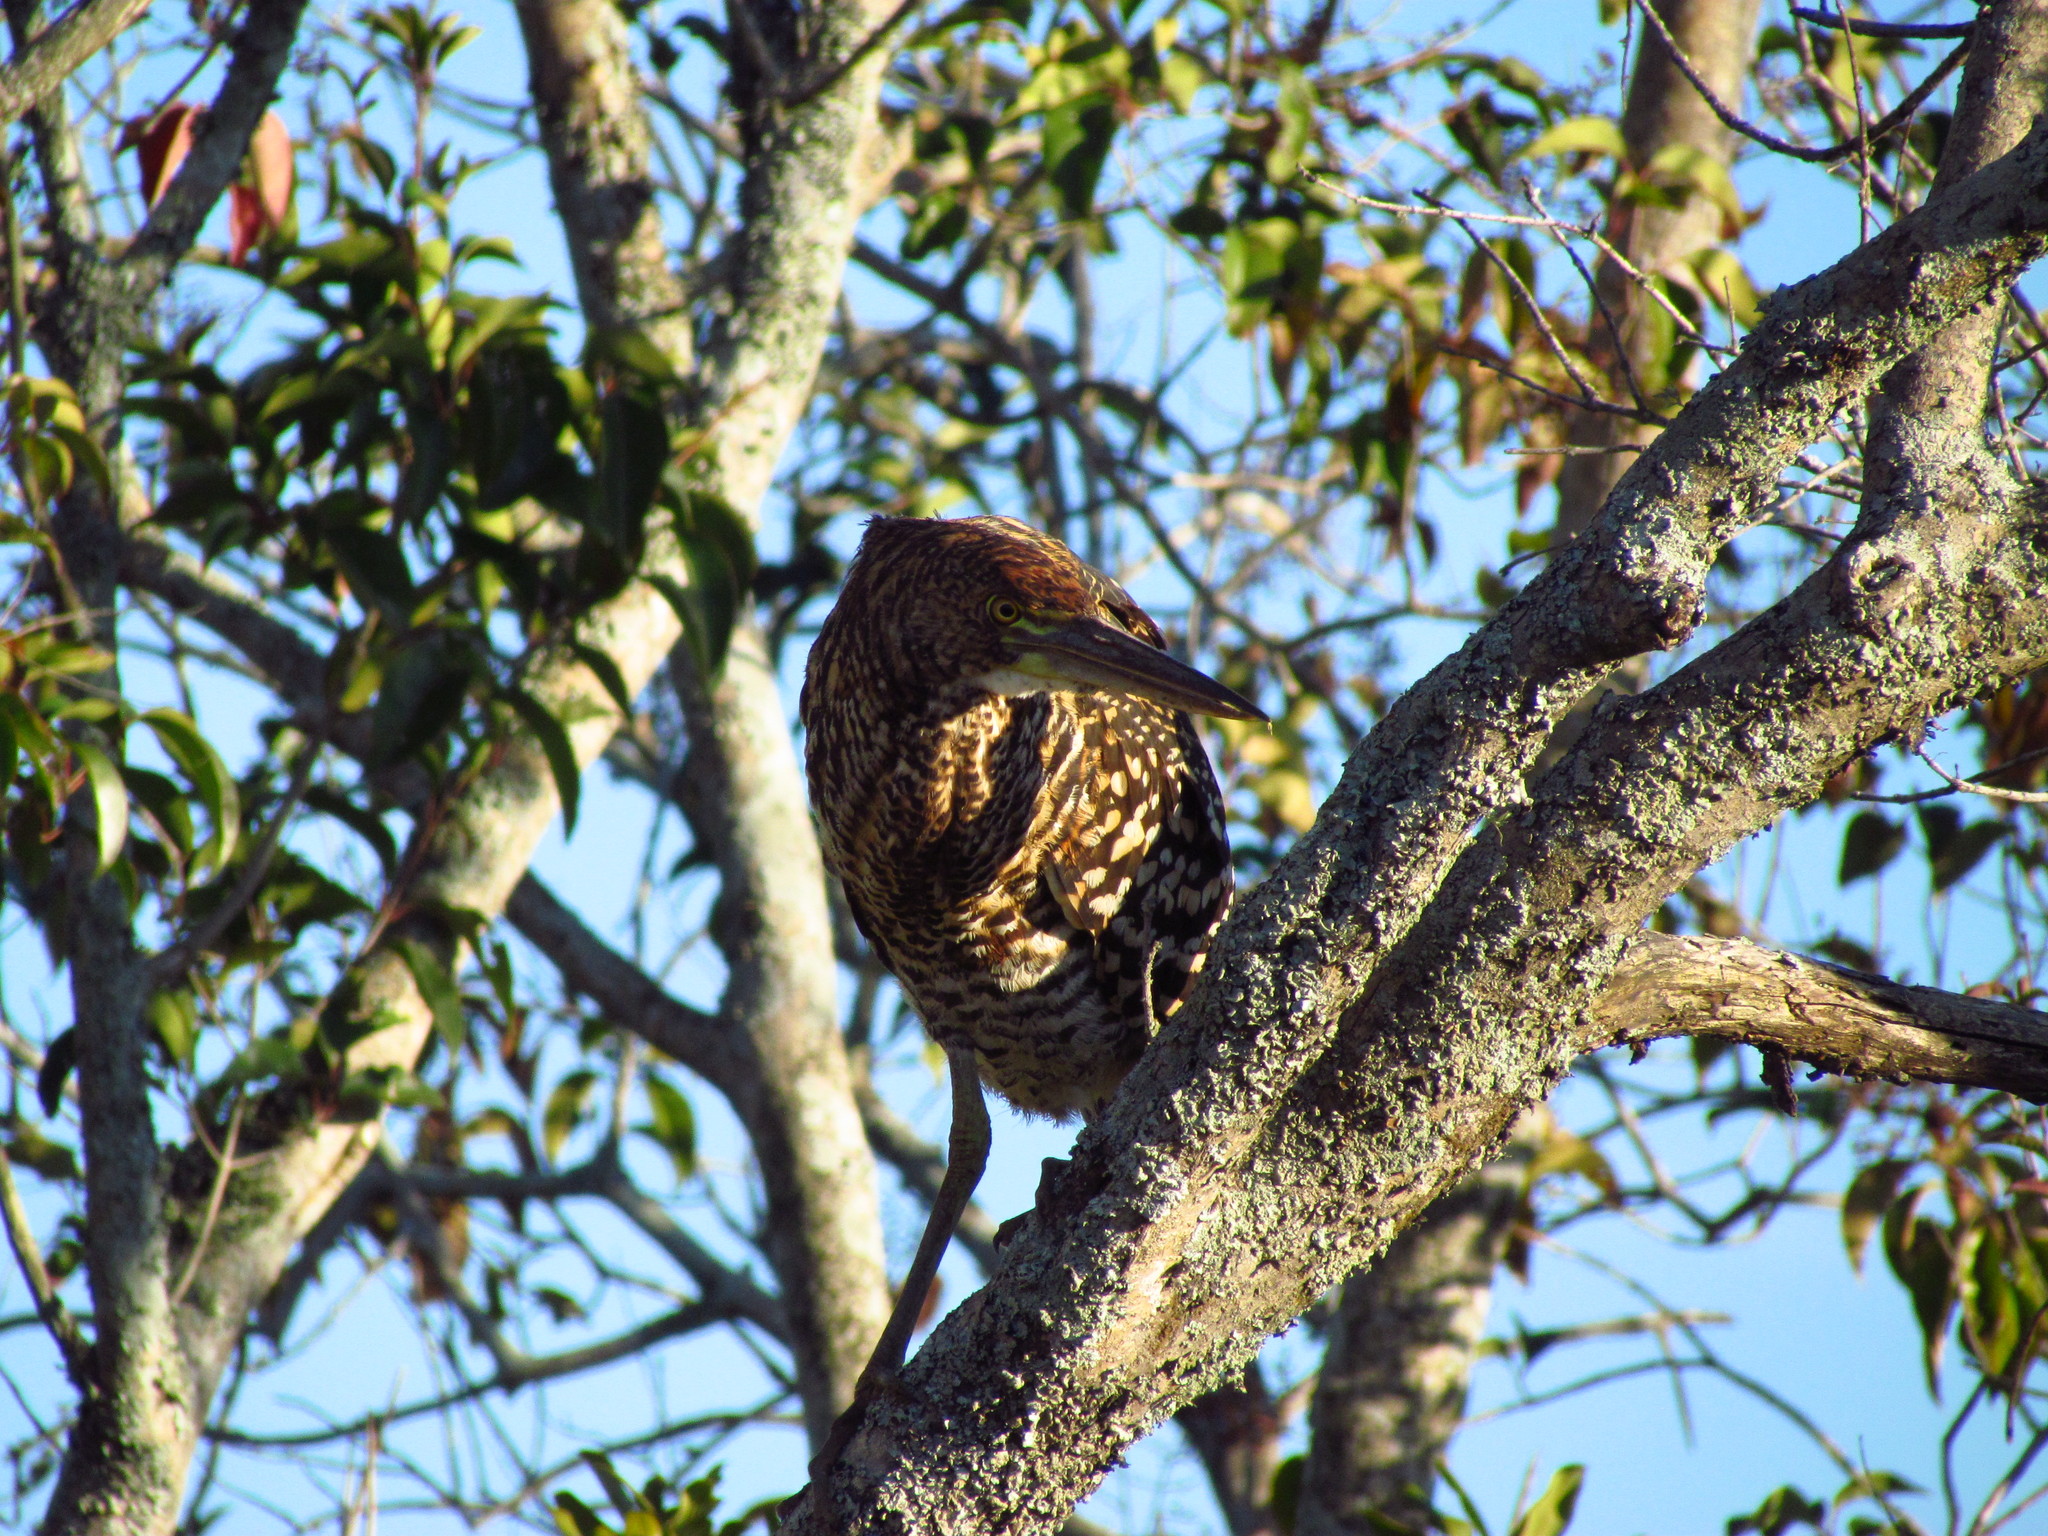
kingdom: Animalia
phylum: Chordata
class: Aves
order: Pelecaniformes
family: Ardeidae
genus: Tigrisoma
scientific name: Tigrisoma lineatum
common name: Rufescent tiger-heron
